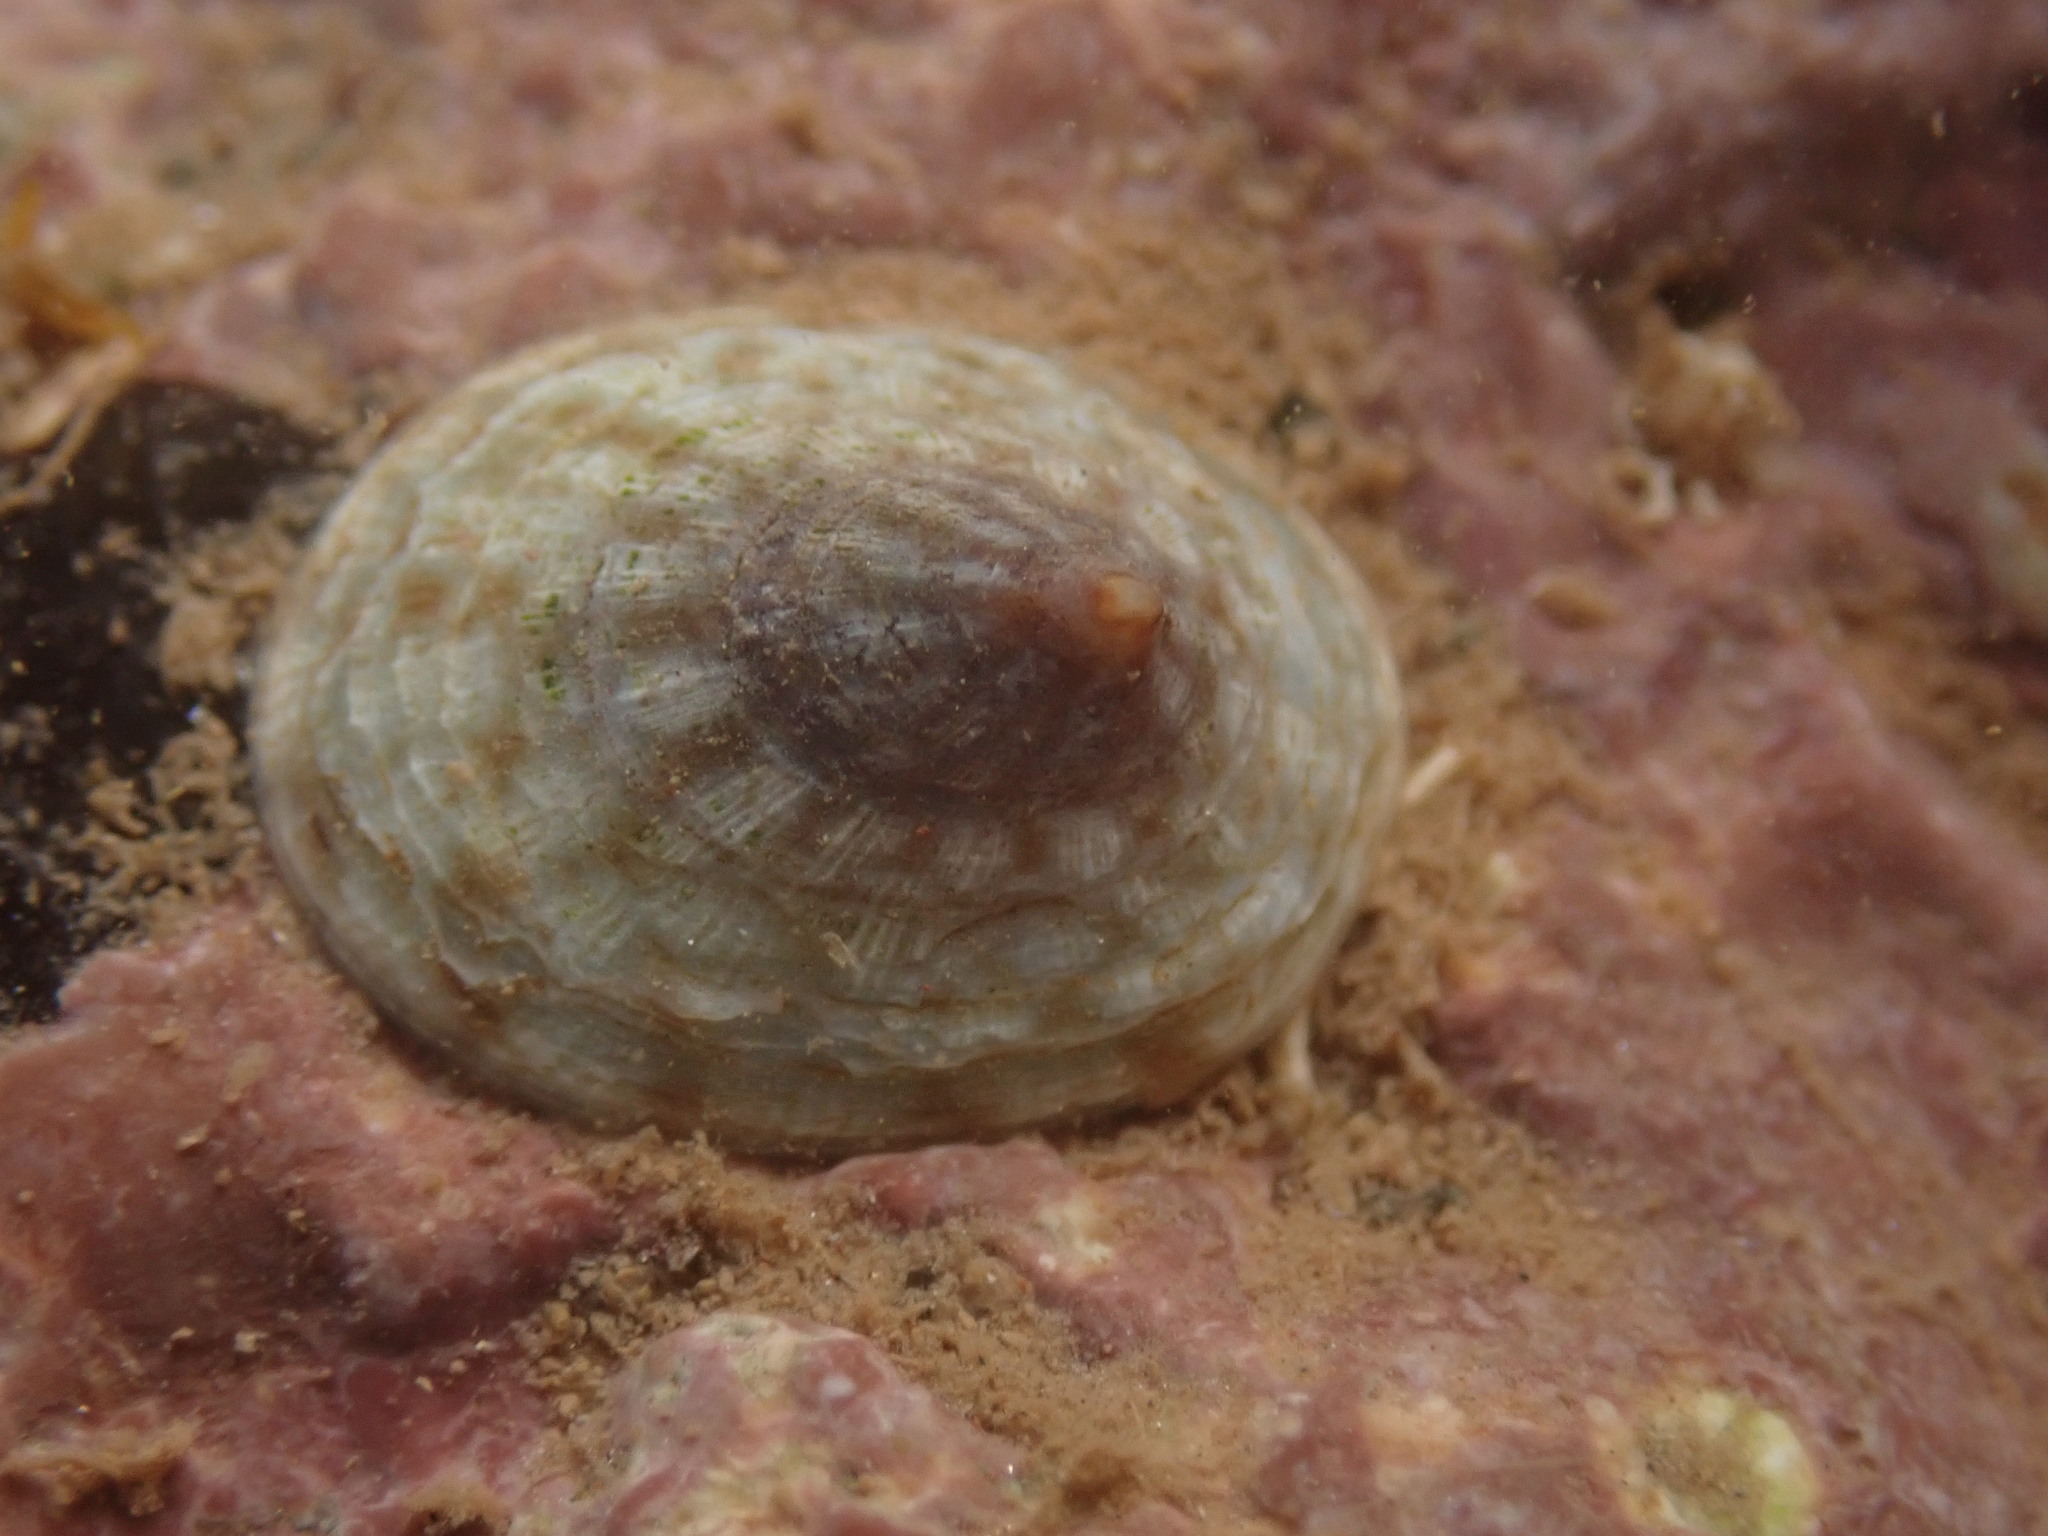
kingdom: Animalia
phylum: Mollusca
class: Gastropoda
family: Lottiidae
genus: Testudinalia
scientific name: Testudinalia testudinalis
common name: Common tortoiseshell limpet
